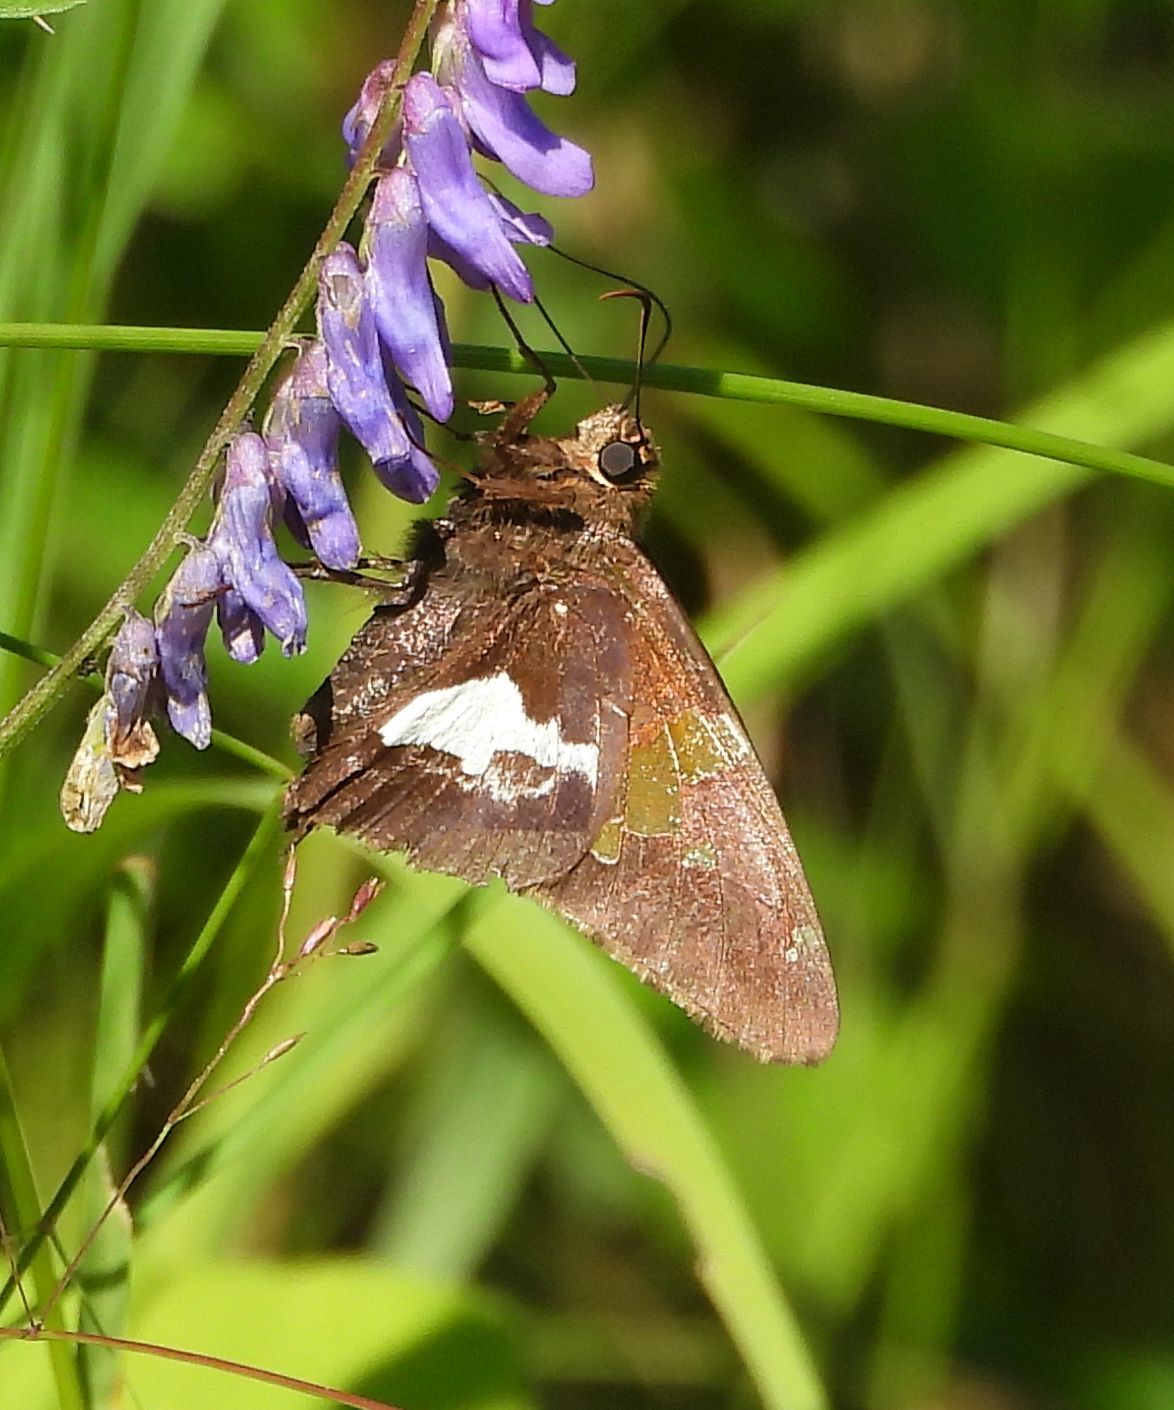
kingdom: Animalia
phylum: Arthropoda
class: Insecta
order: Lepidoptera
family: Hesperiidae
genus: Epargyreus
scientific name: Epargyreus clarus
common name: Silver-spotted skipper
